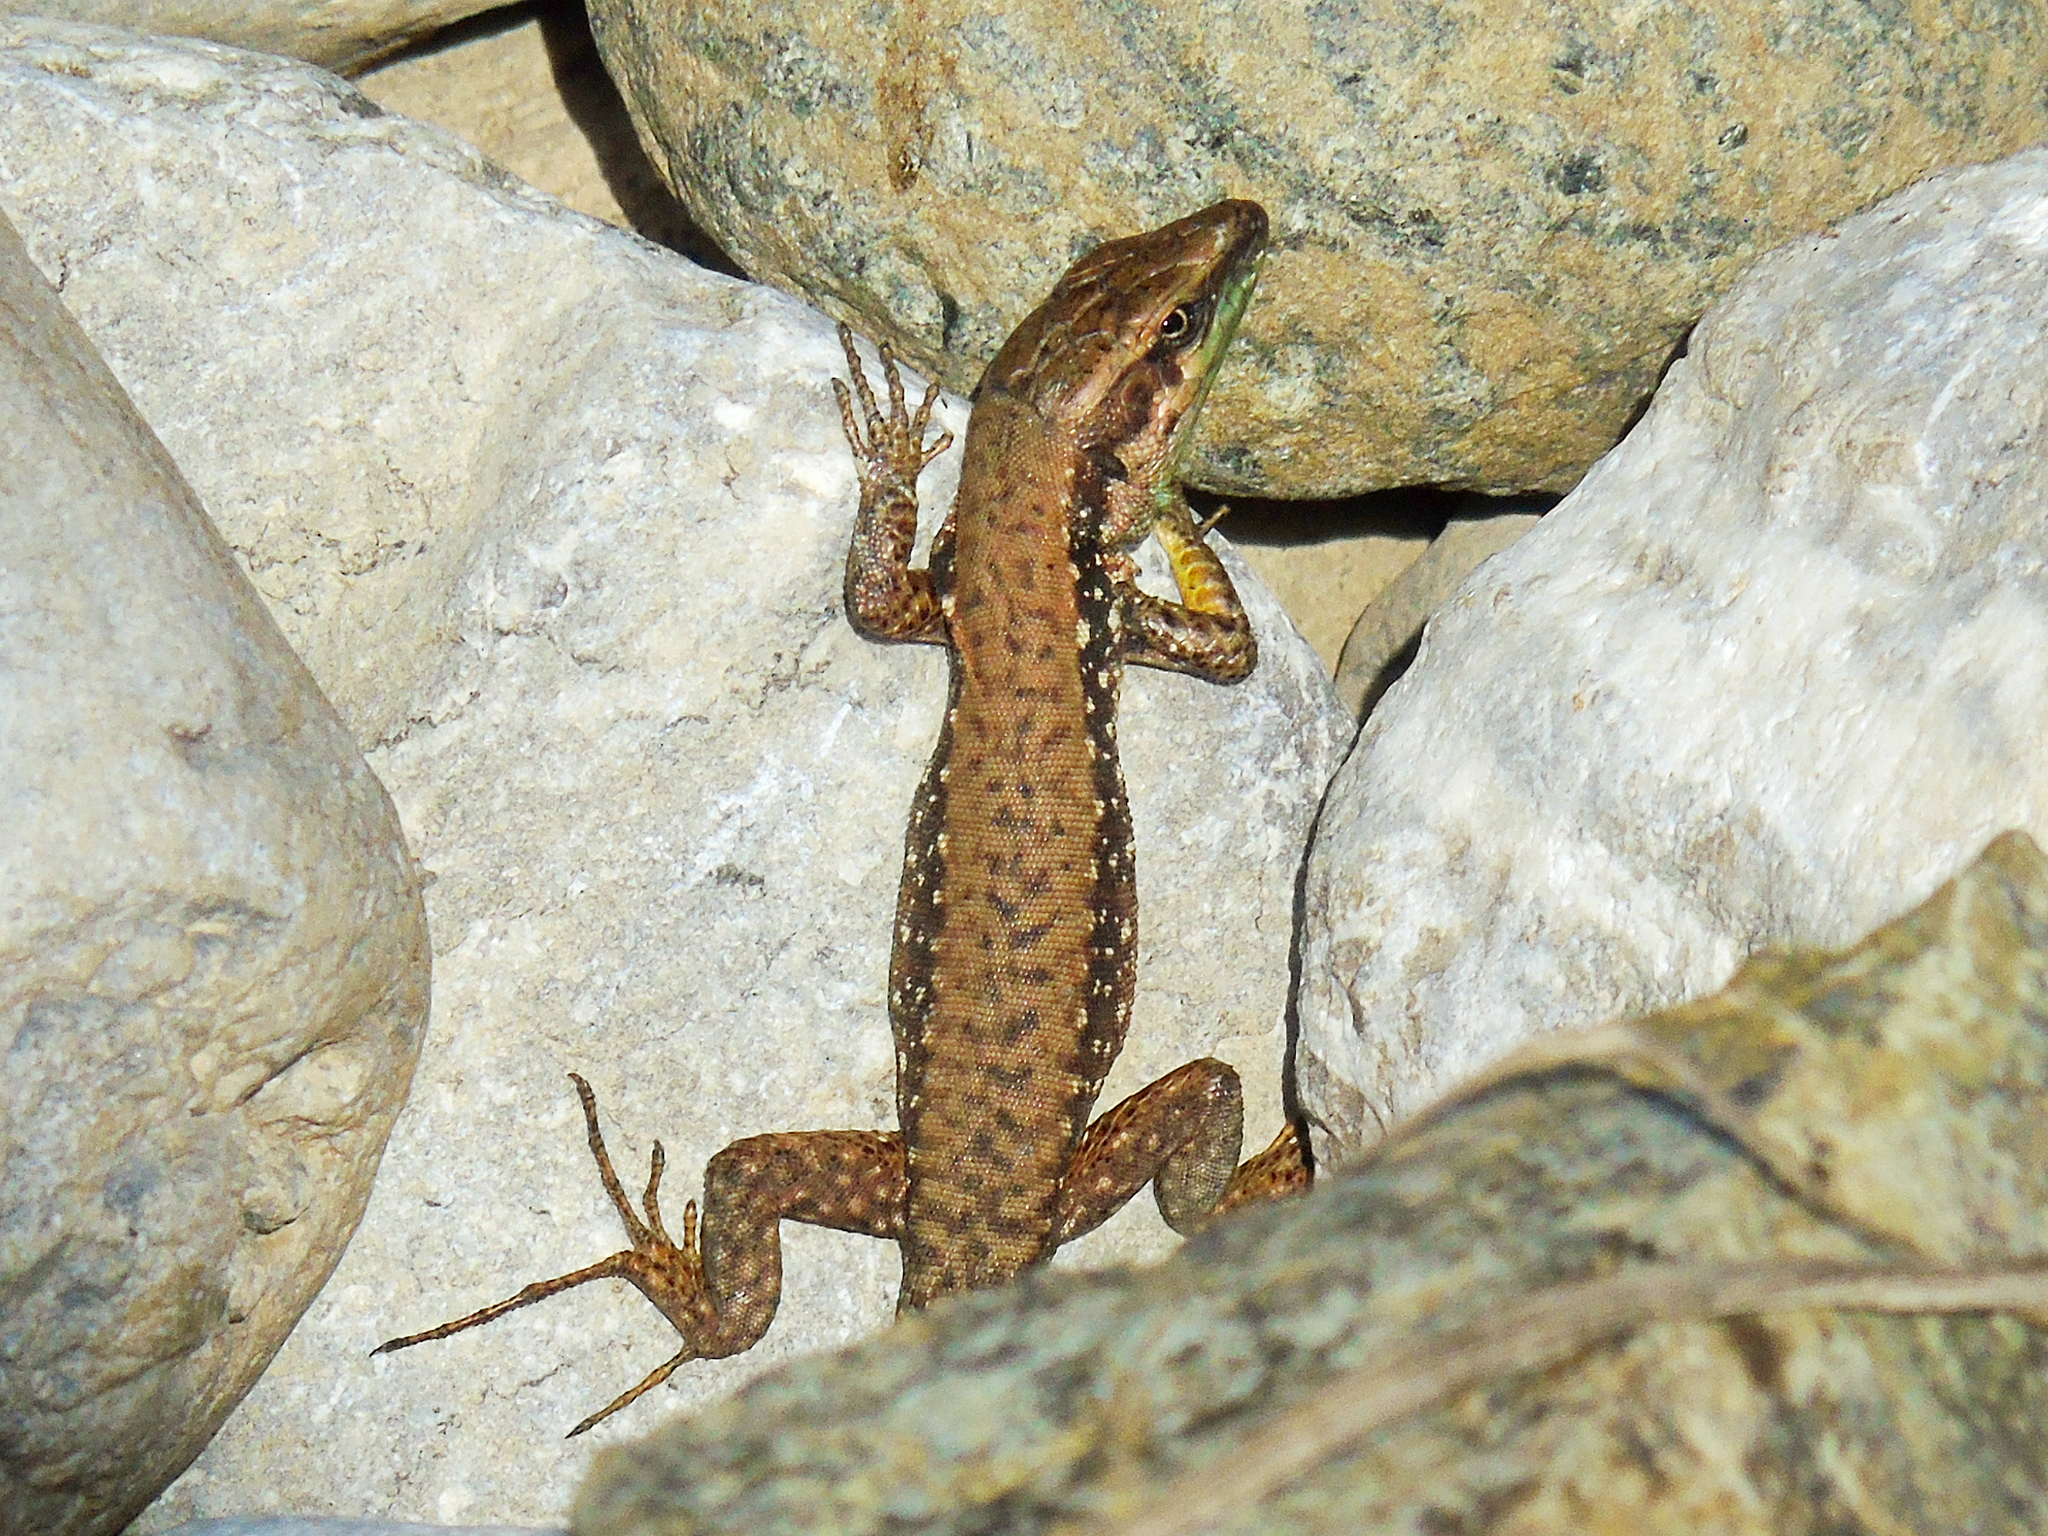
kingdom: Animalia
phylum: Chordata
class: Squamata
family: Lacertidae
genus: Phoenicolacerta
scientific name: Phoenicolacerta laevis
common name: Lebanon lizard
